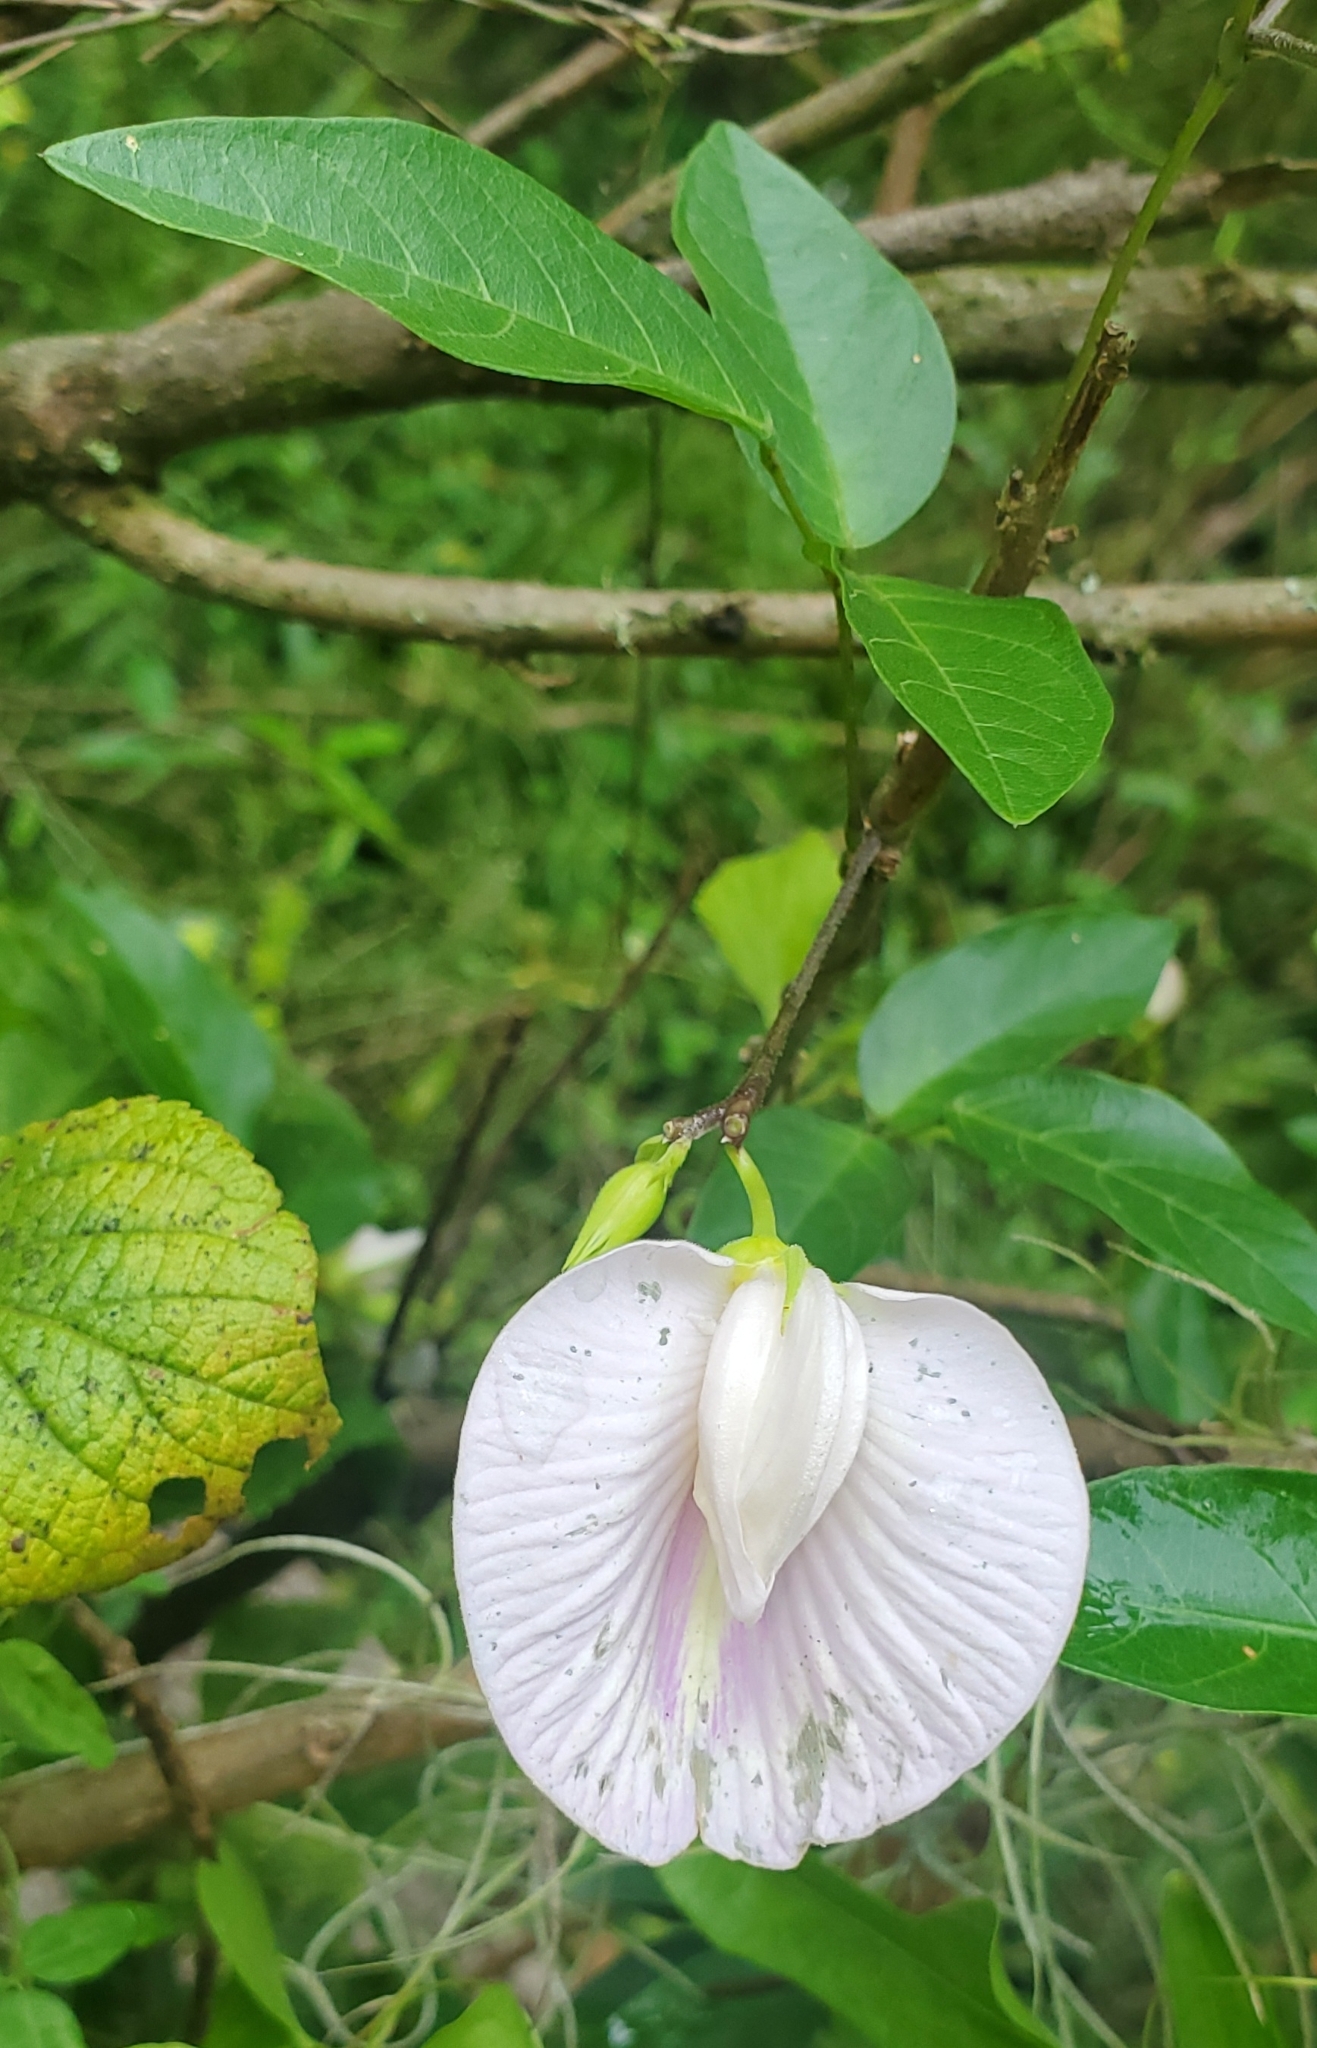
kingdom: Plantae
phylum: Tracheophyta
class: Magnoliopsida
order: Fabales
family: Fabaceae
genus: Centrosema
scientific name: Centrosema arenicola
